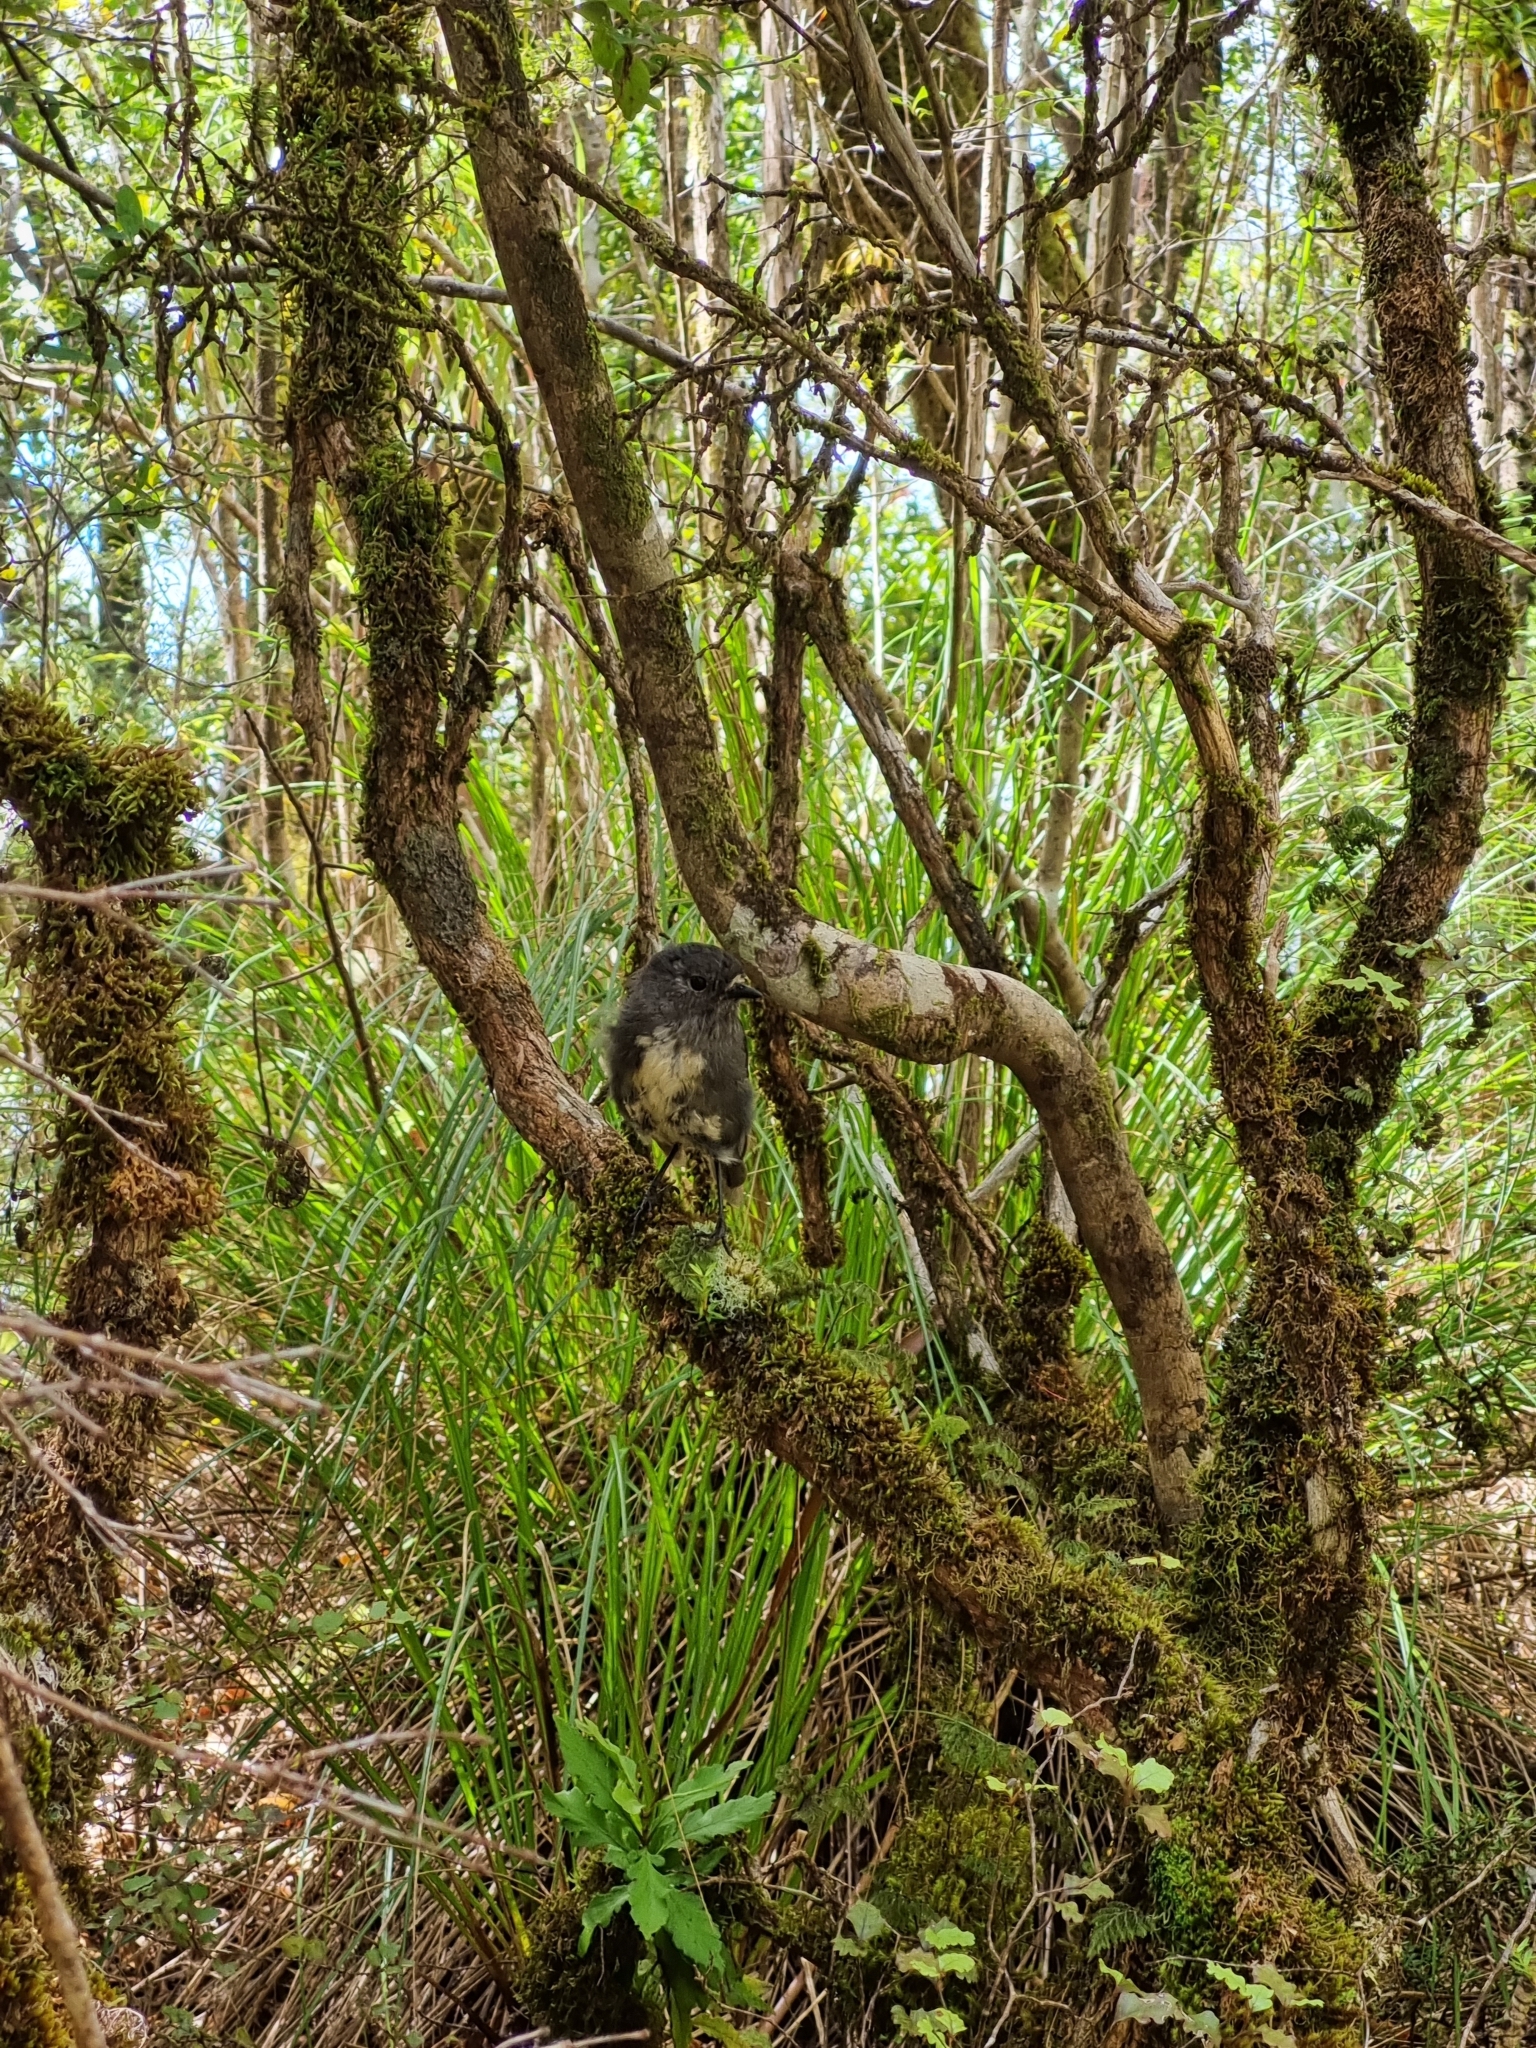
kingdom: Animalia
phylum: Chordata
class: Aves
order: Passeriformes
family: Petroicidae
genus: Petroica
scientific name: Petroica australis
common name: New zealand robin
